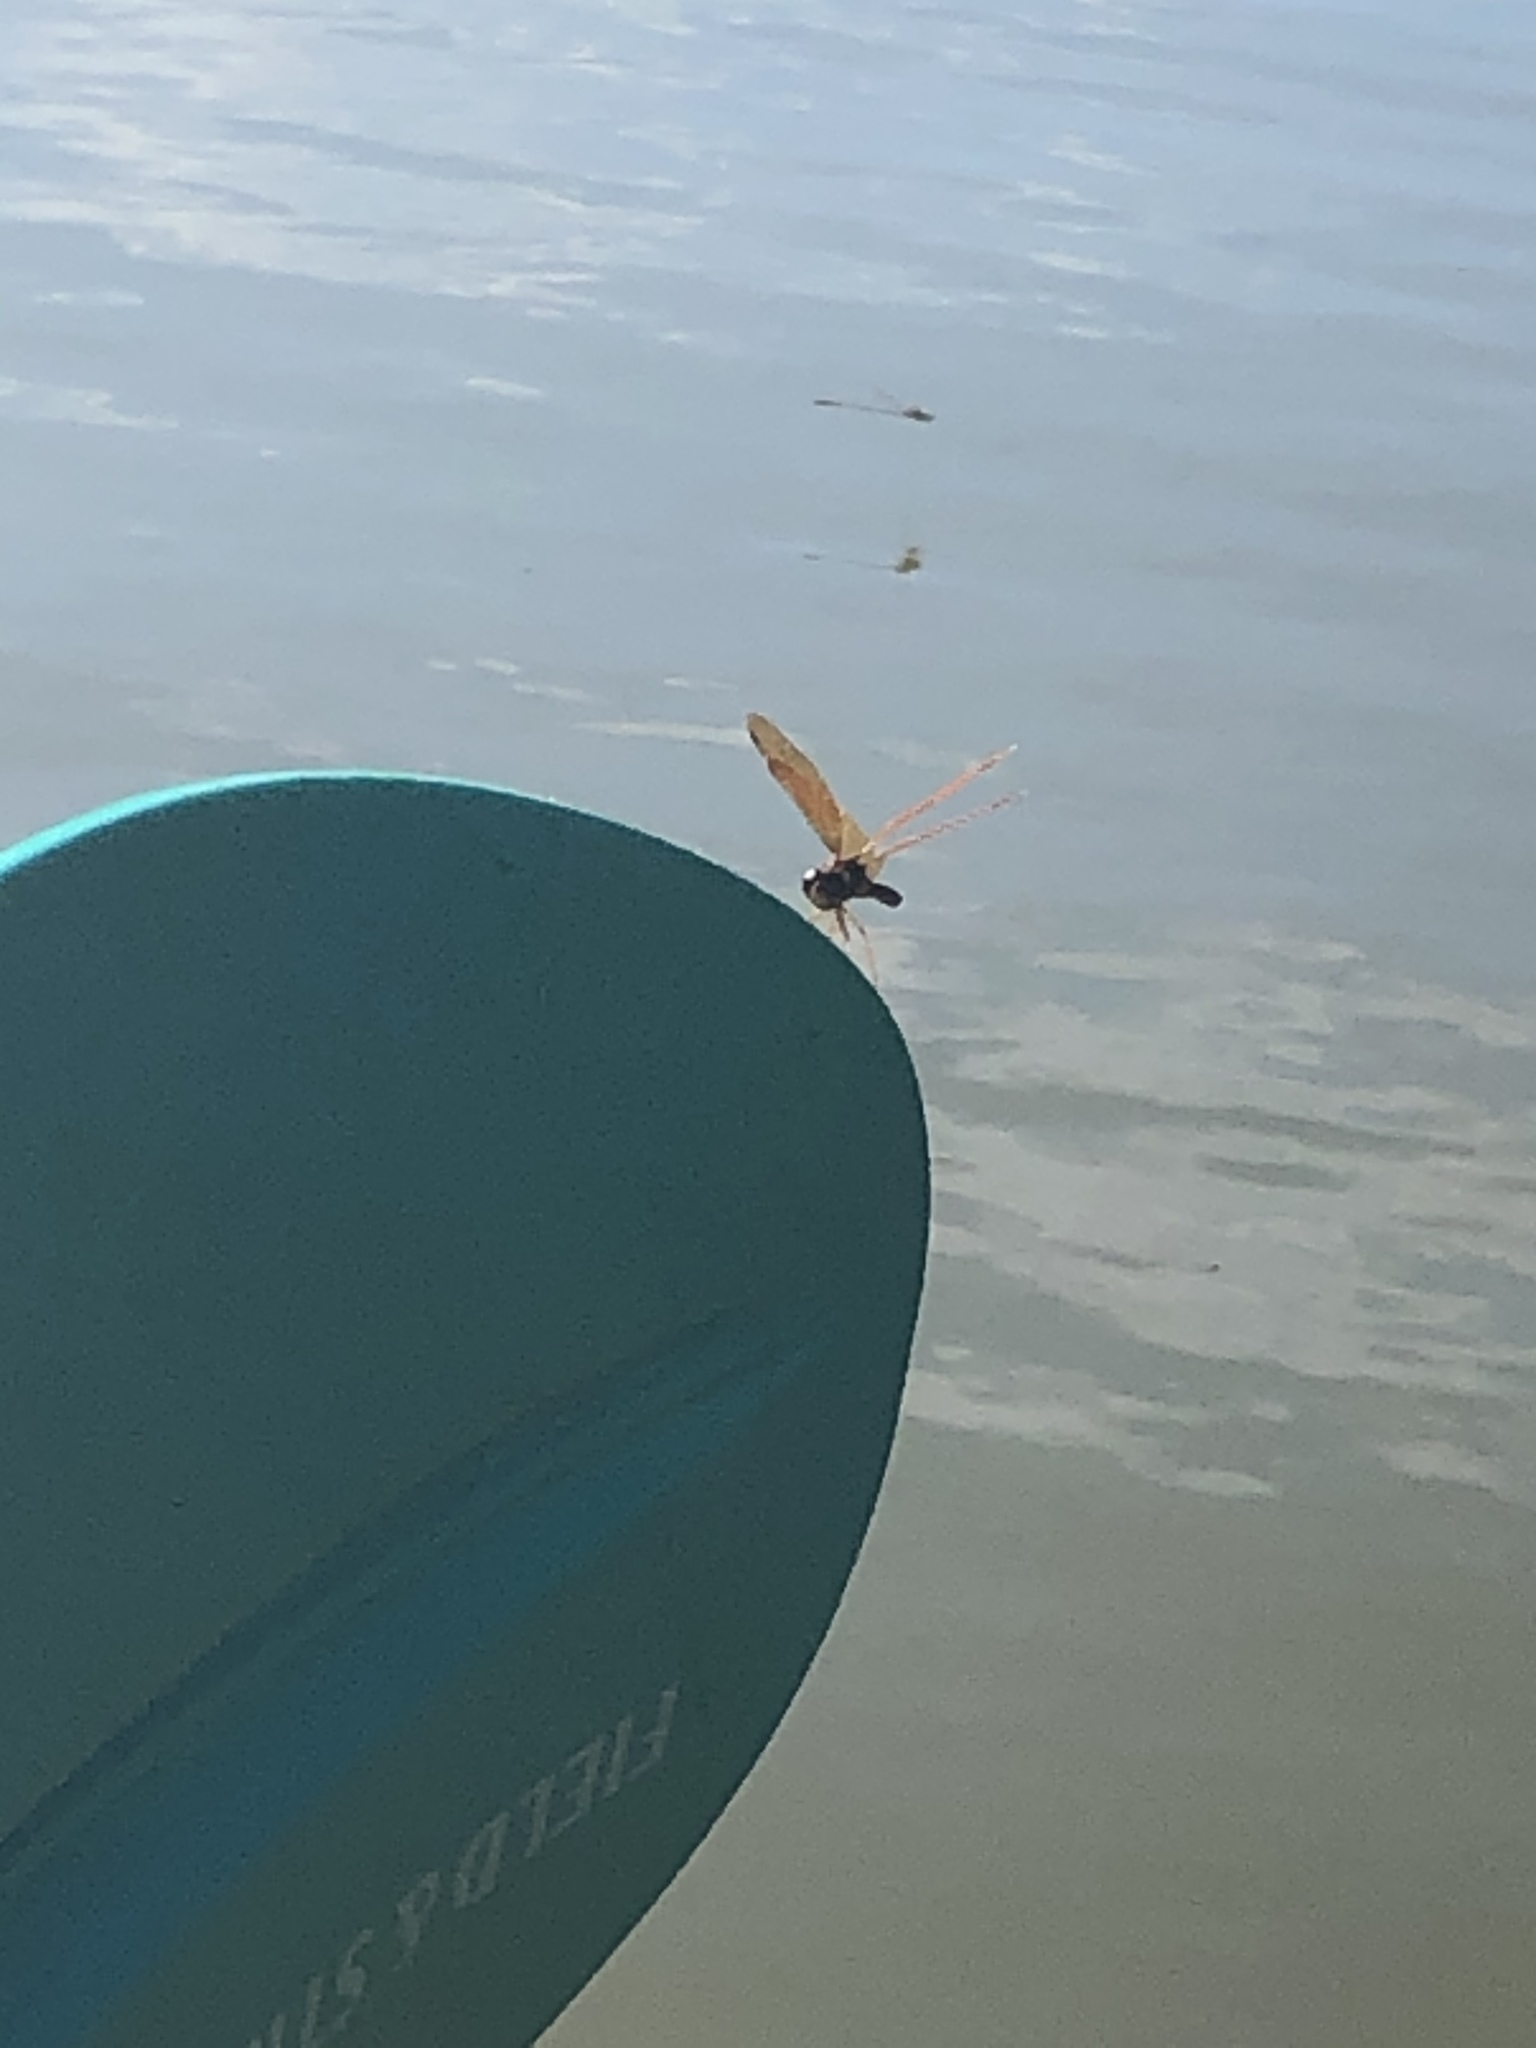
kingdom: Animalia
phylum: Arthropoda
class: Insecta
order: Odonata
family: Libellulidae
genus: Perithemis
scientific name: Perithemis tenera
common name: Eastern amberwing
